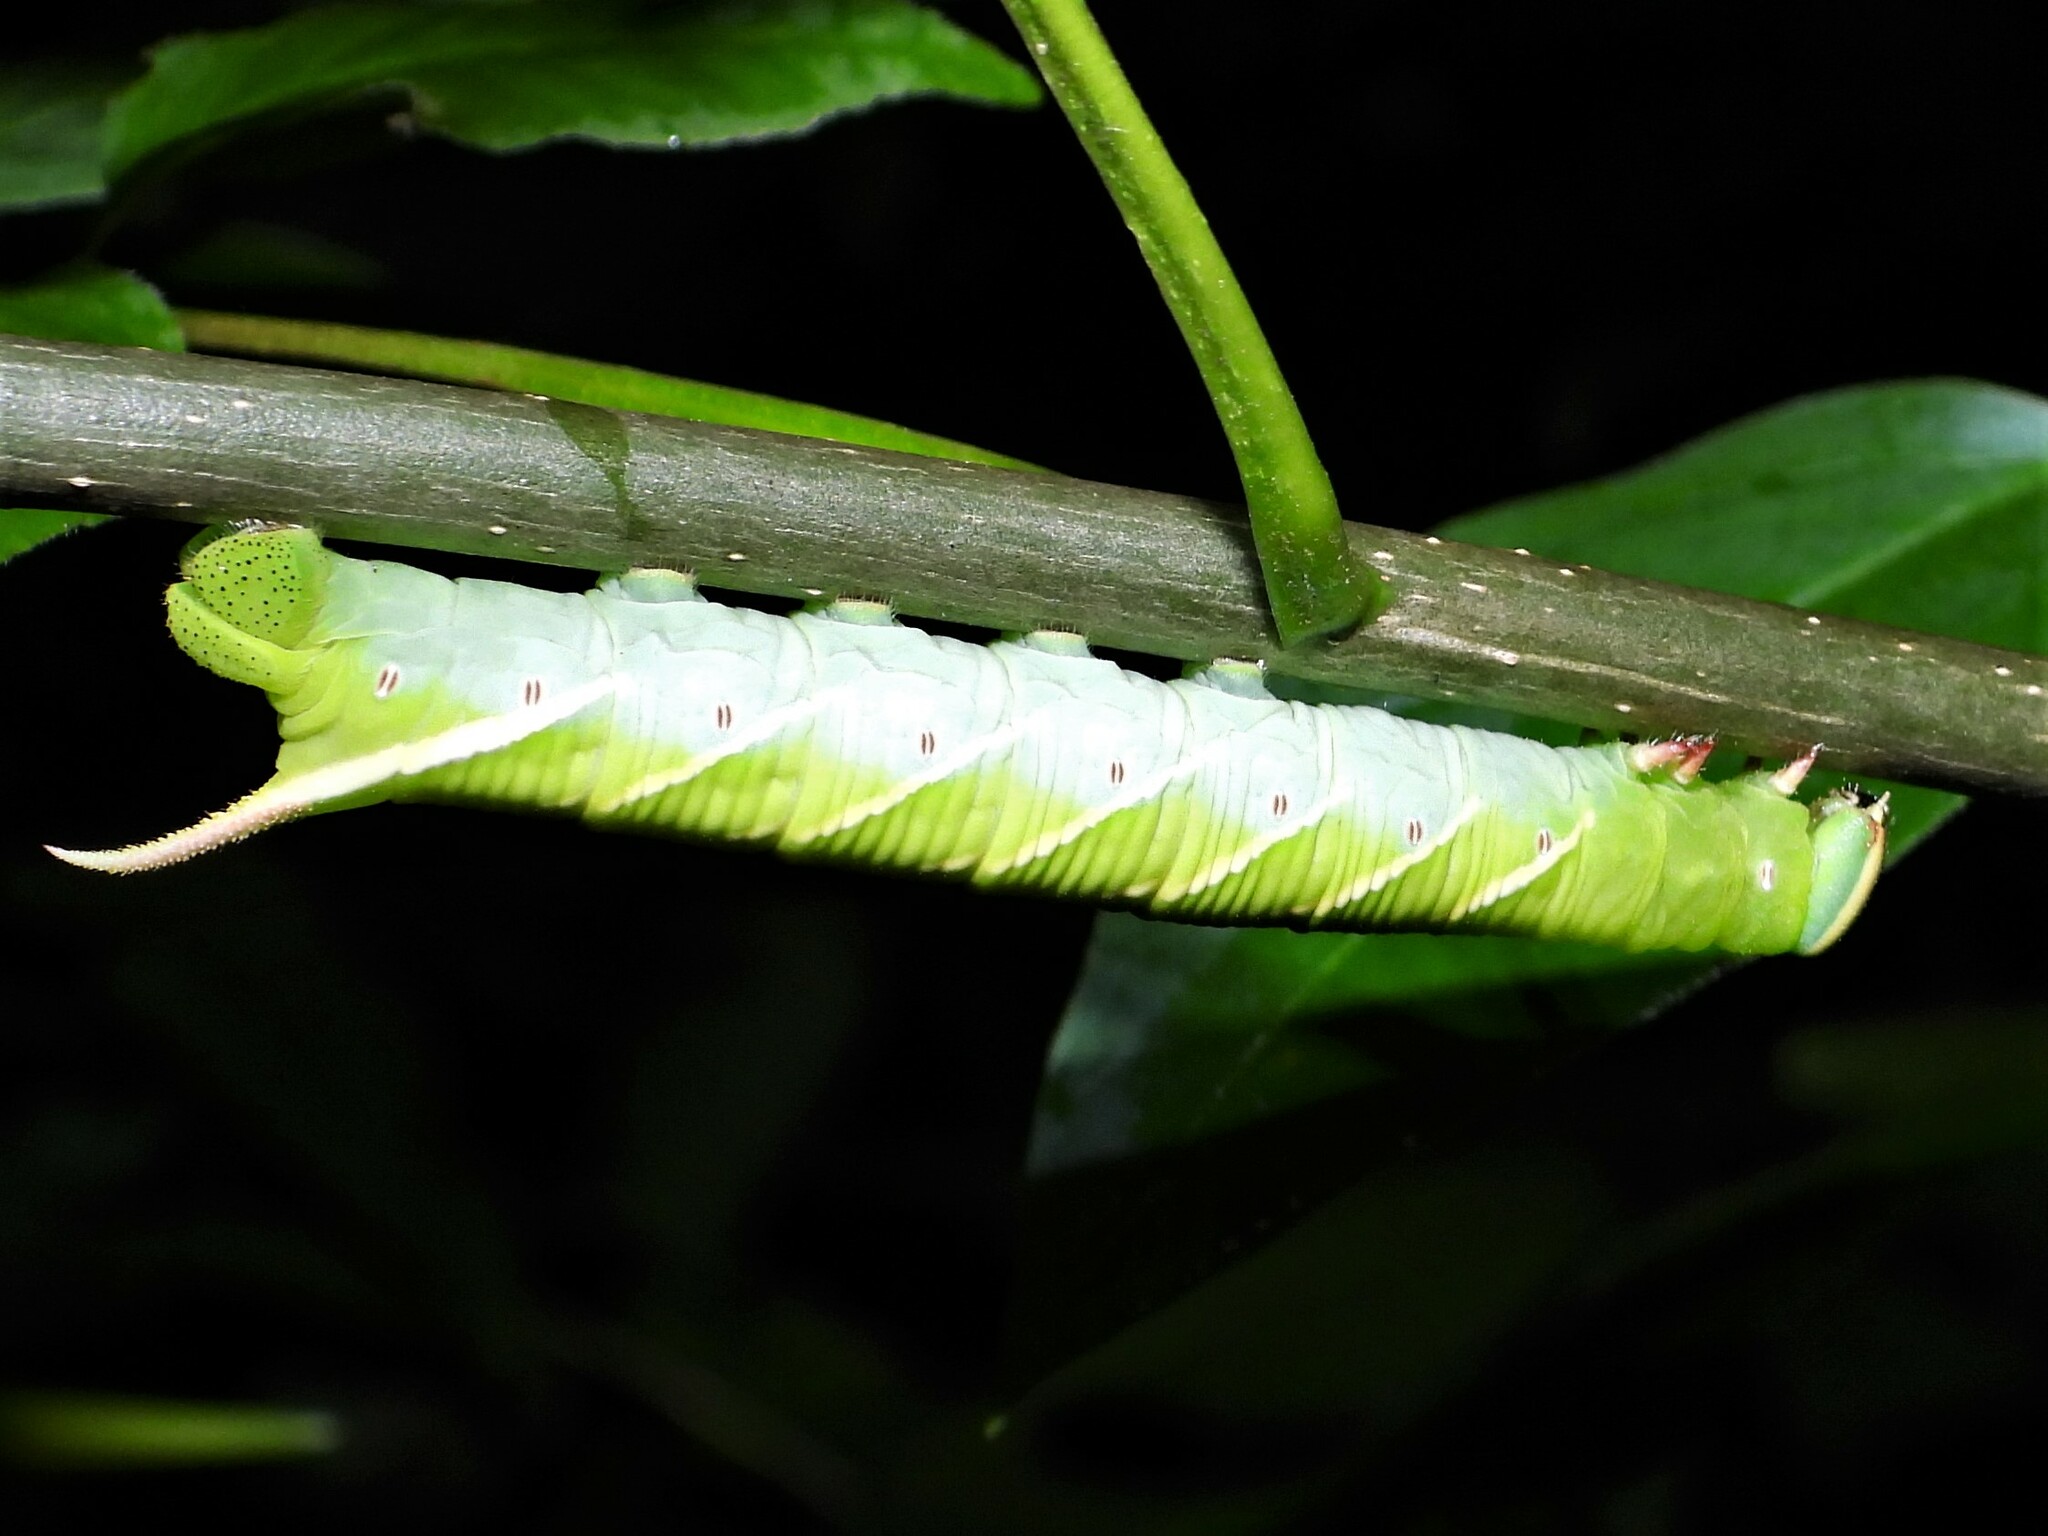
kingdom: Animalia
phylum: Arthropoda
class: Insecta
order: Lepidoptera
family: Sphingidae
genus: Ceratomia
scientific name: Ceratomia undulosa
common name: Waved sphinx
